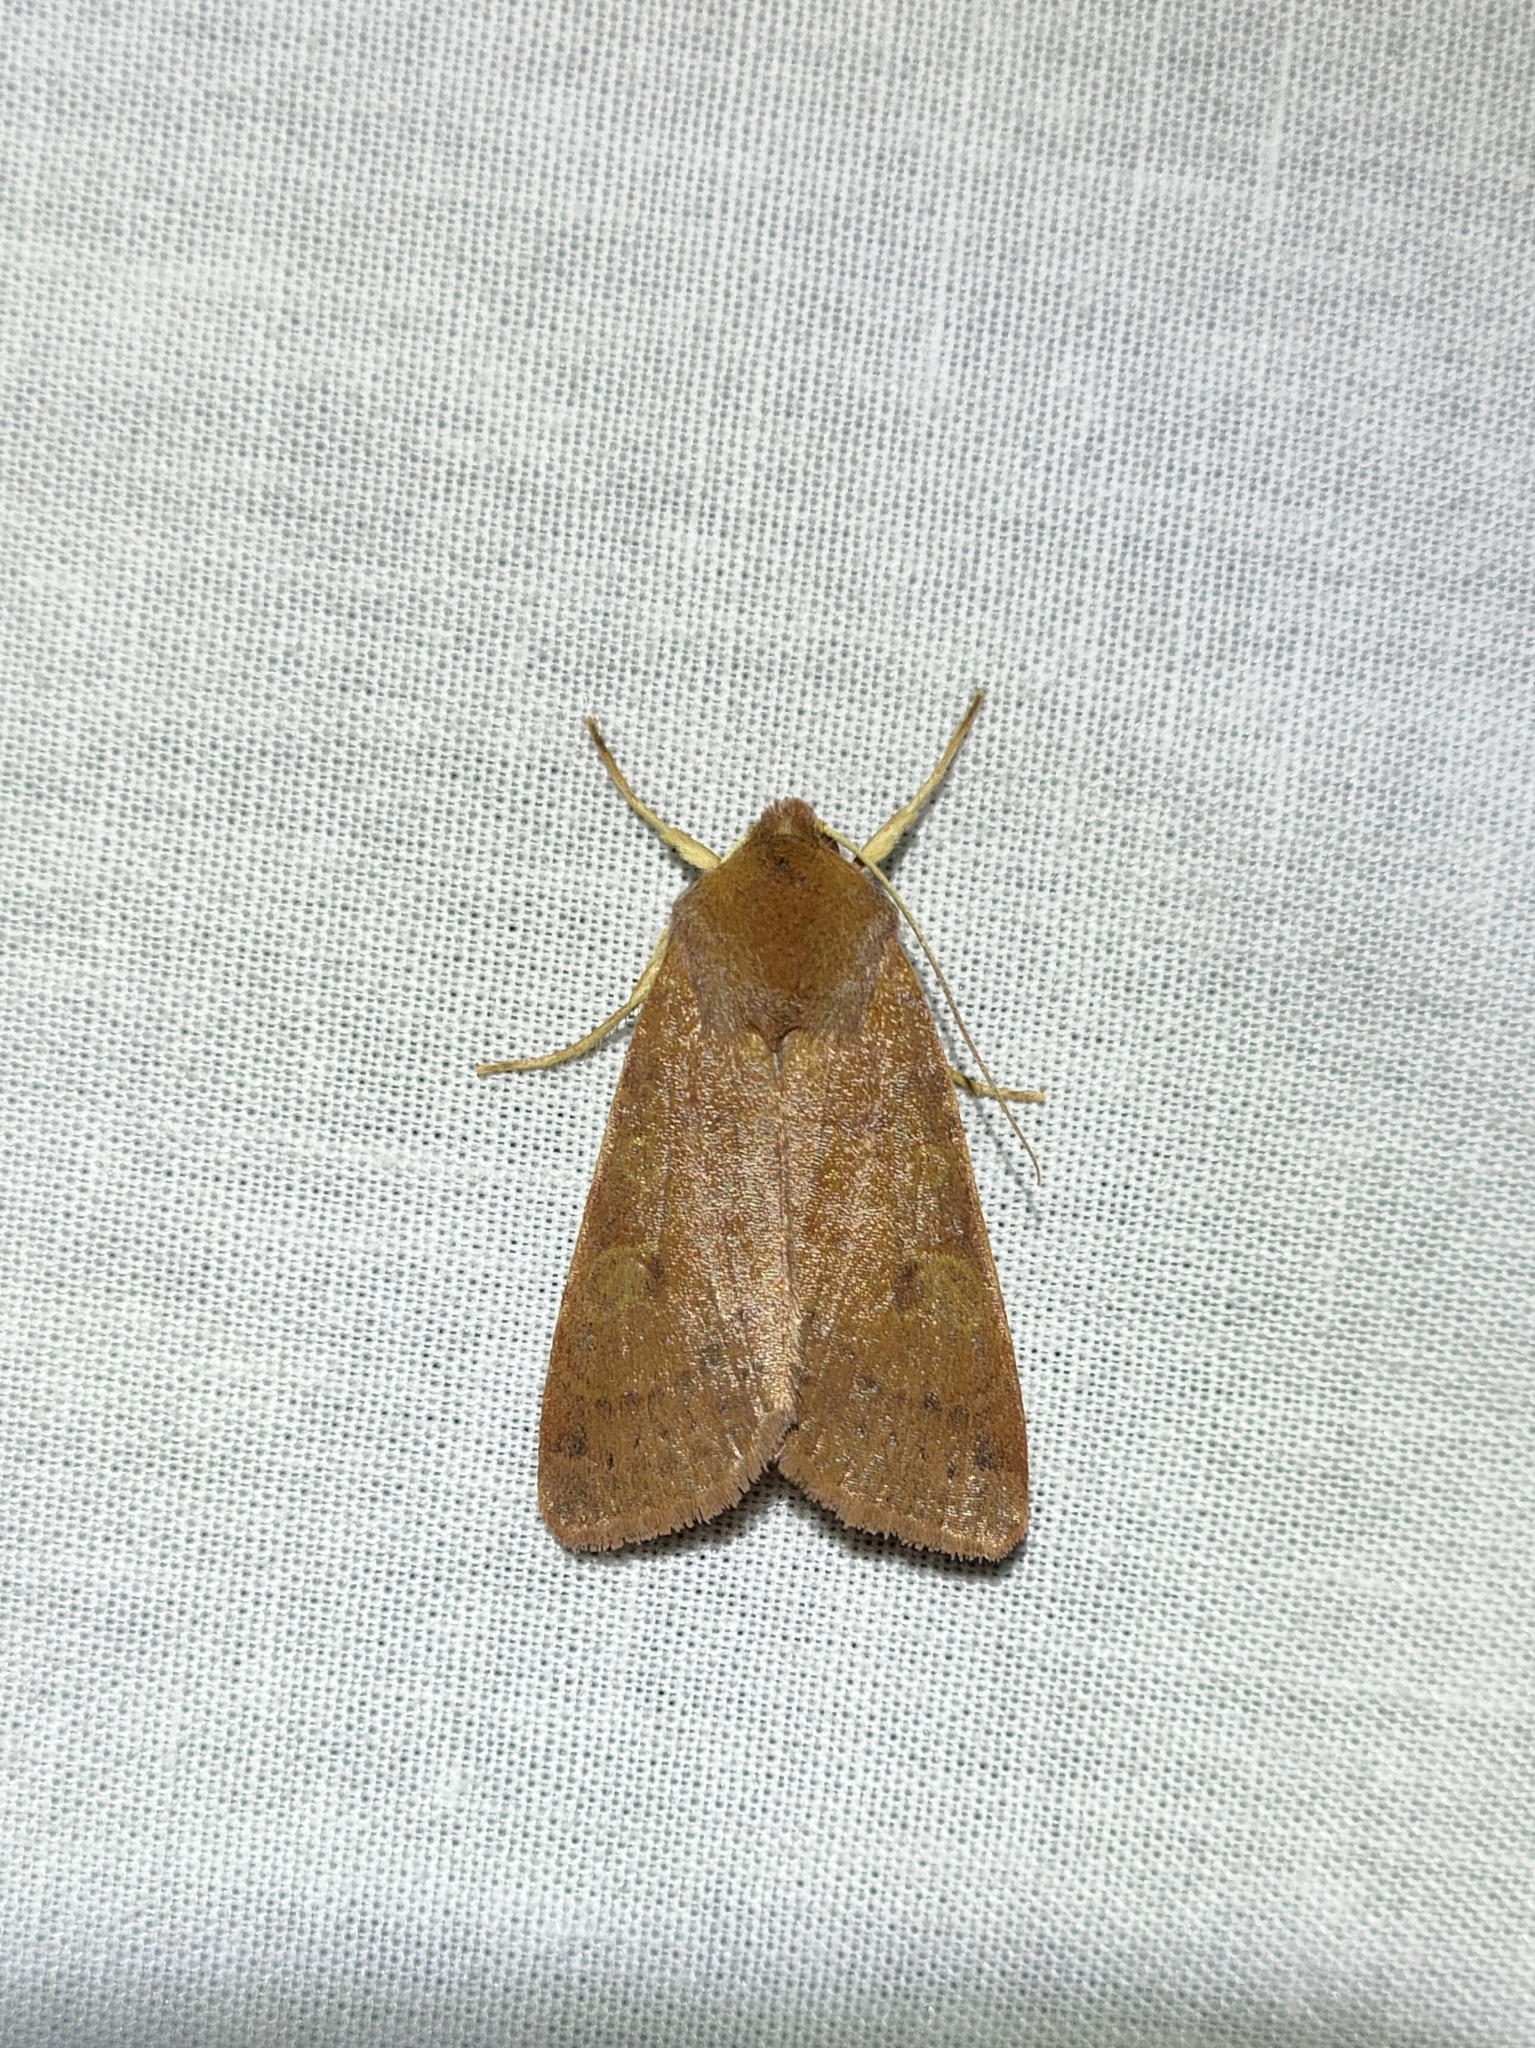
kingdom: Animalia
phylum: Arthropoda
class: Insecta
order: Lepidoptera
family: Noctuidae
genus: Agrochola
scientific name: Agrochola helvola
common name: Flounced chestnut
